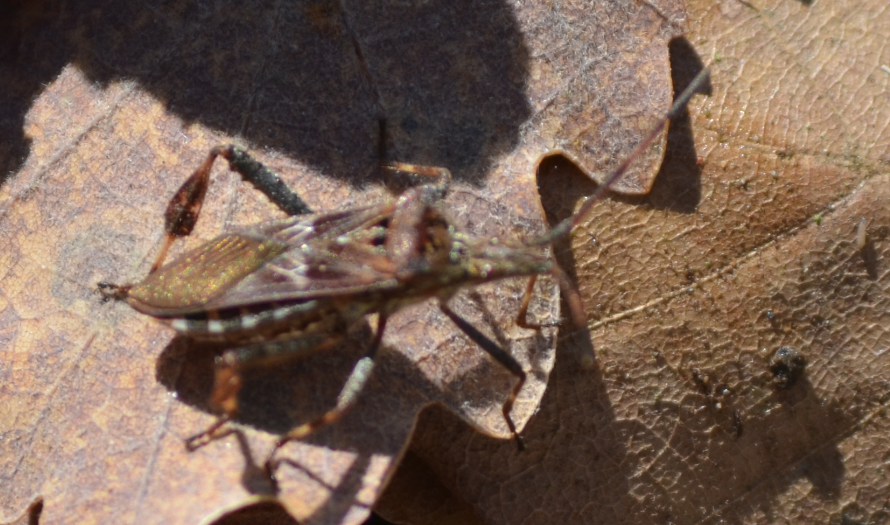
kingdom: Animalia
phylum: Arthropoda
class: Insecta
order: Hemiptera
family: Coreidae
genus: Leptoglossus
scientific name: Leptoglossus occidentalis
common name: Western conifer-seed bug
